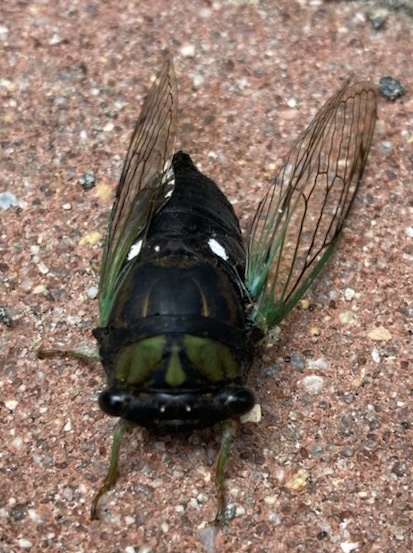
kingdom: Animalia
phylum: Arthropoda
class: Insecta
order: Hemiptera
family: Cicadidae
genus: Neotibicen
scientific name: Neotibicen tibicen
